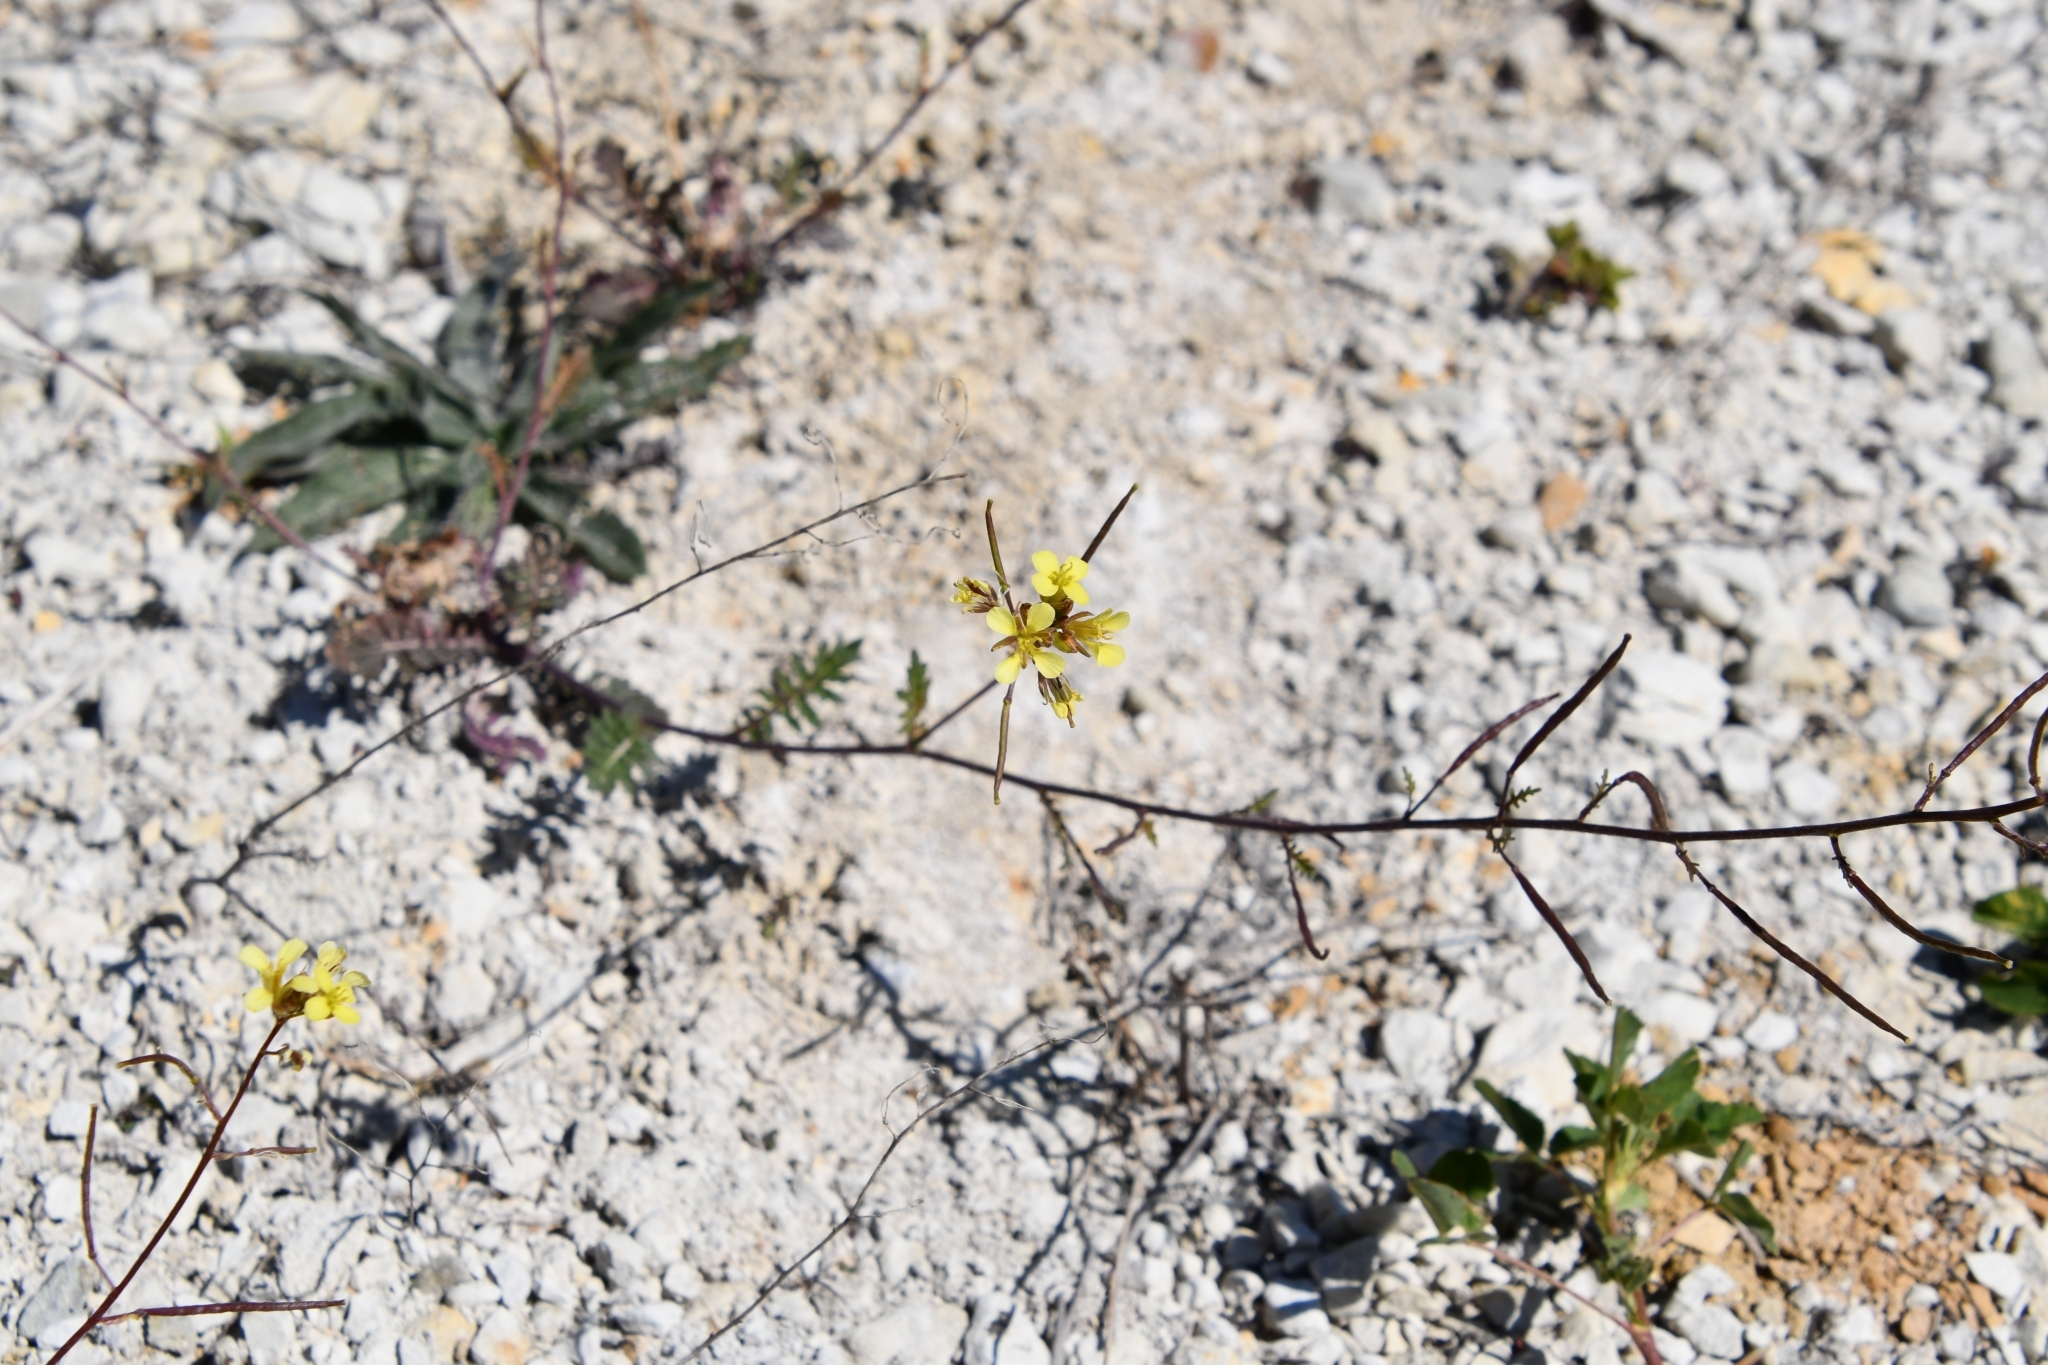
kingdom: Plantae
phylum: Tracheophyta
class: Magnoliopsida
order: Brassicales
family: Brassicaceae
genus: Erucastrum
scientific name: Erucastrum gallicum
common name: Hairy rocket
